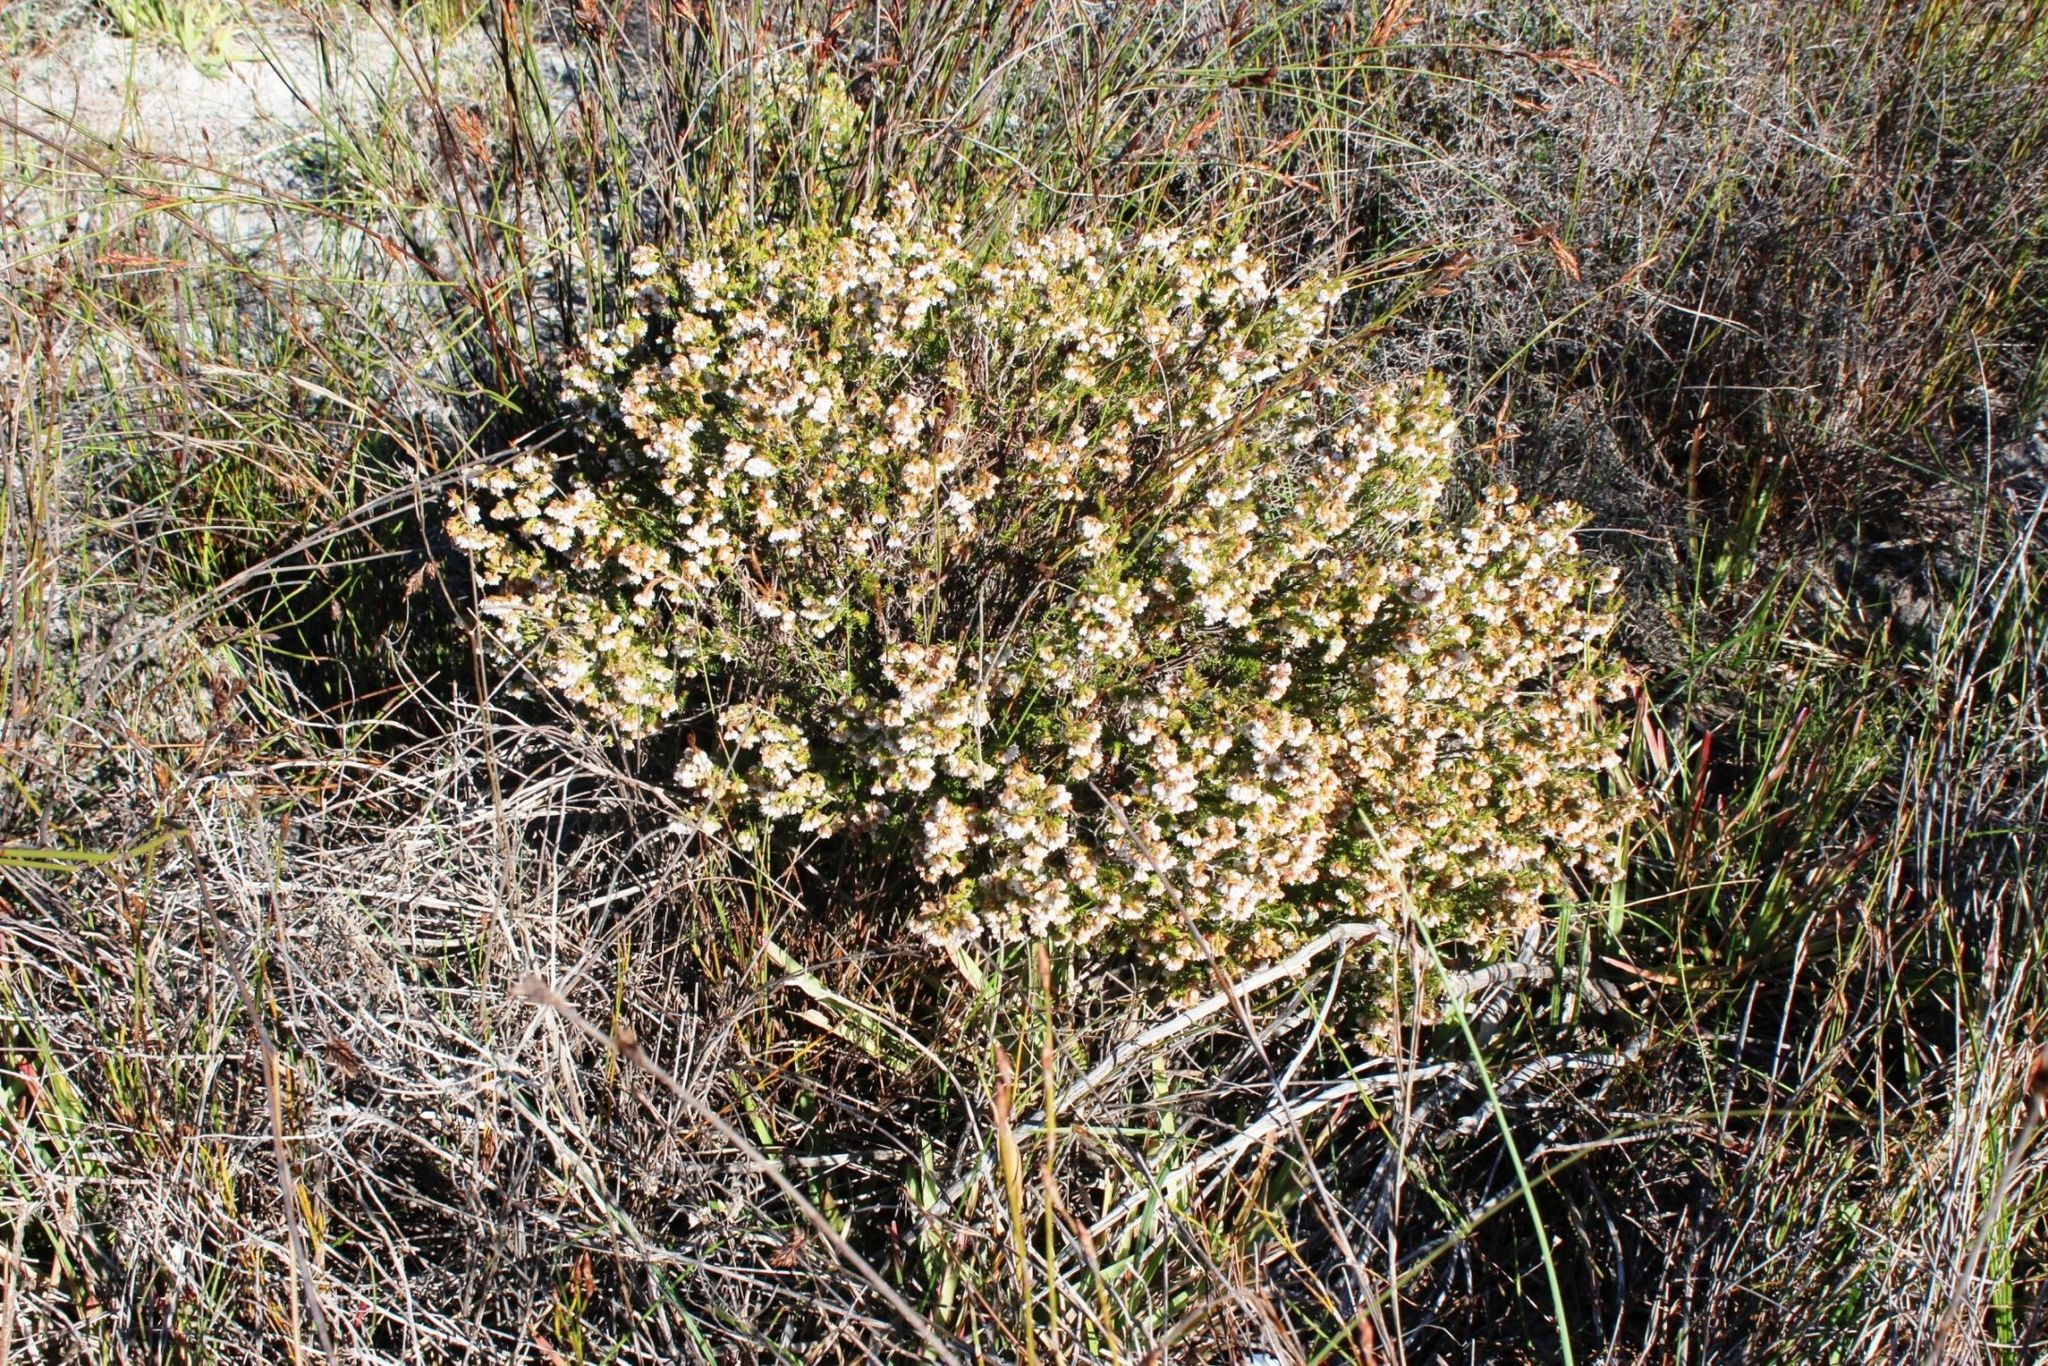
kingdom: Plantae
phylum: Tracheophyta
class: Magnoliopsida
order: Ericales
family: Ericaceae
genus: Erica
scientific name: Erica margaritacea
